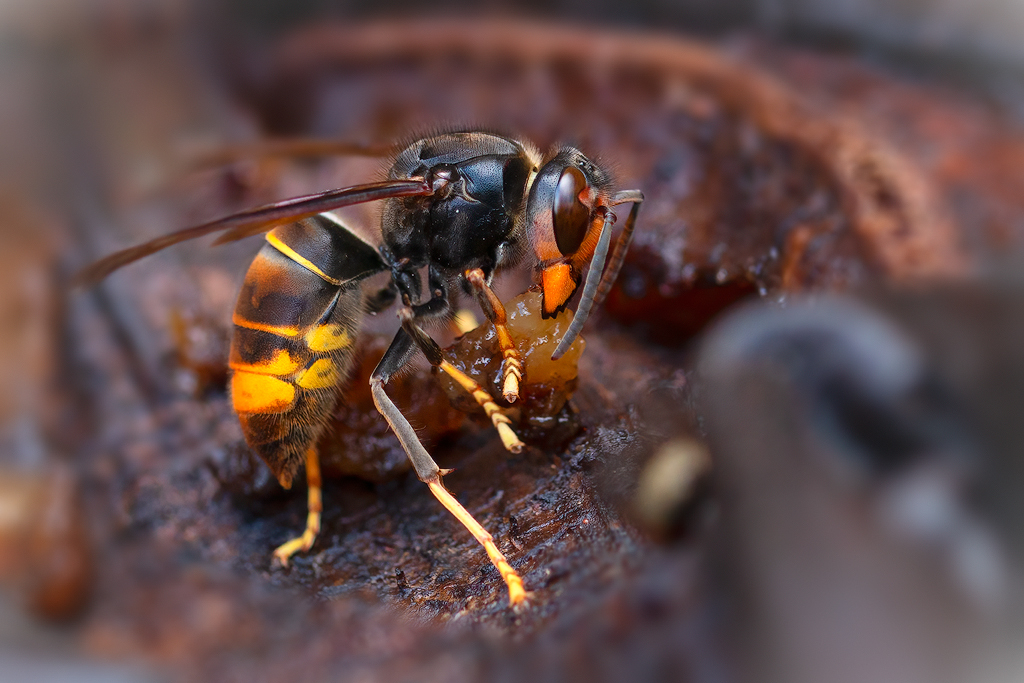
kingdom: Animalia
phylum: Arthropoda
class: Insecta
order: Hymenoptera
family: Vespidae
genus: Vespa
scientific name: Vespa velutina
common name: Asian hornet
